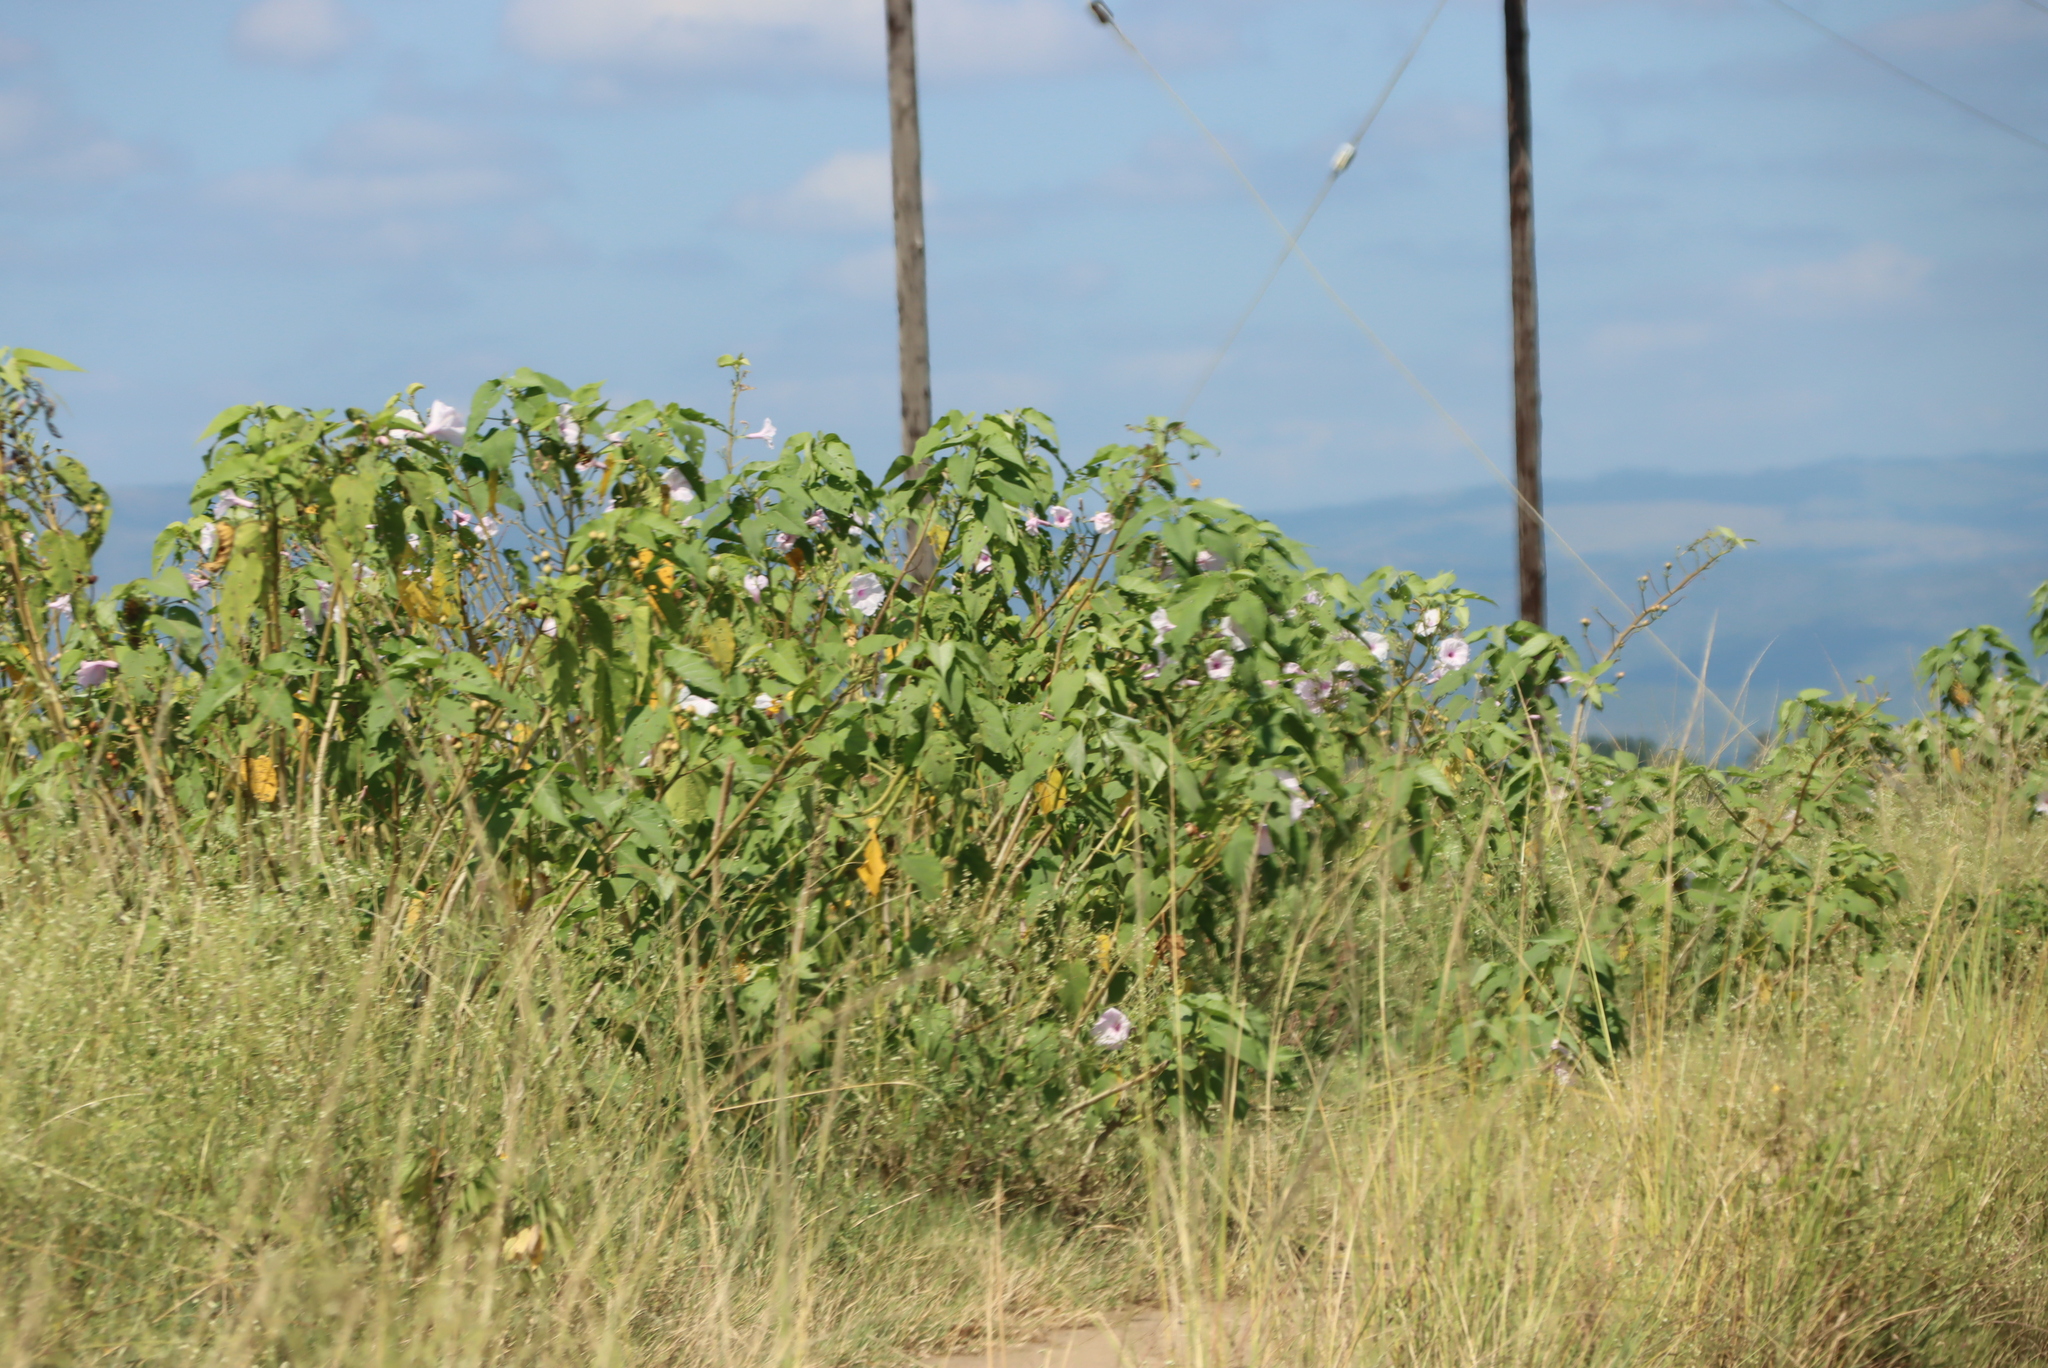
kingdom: Plantae
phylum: Tracheophyta
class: Magnoliopsida
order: Solanales
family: Convolvulaceae
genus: Ipomoea
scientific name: Ipomoea carnea
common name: Morning-glory
